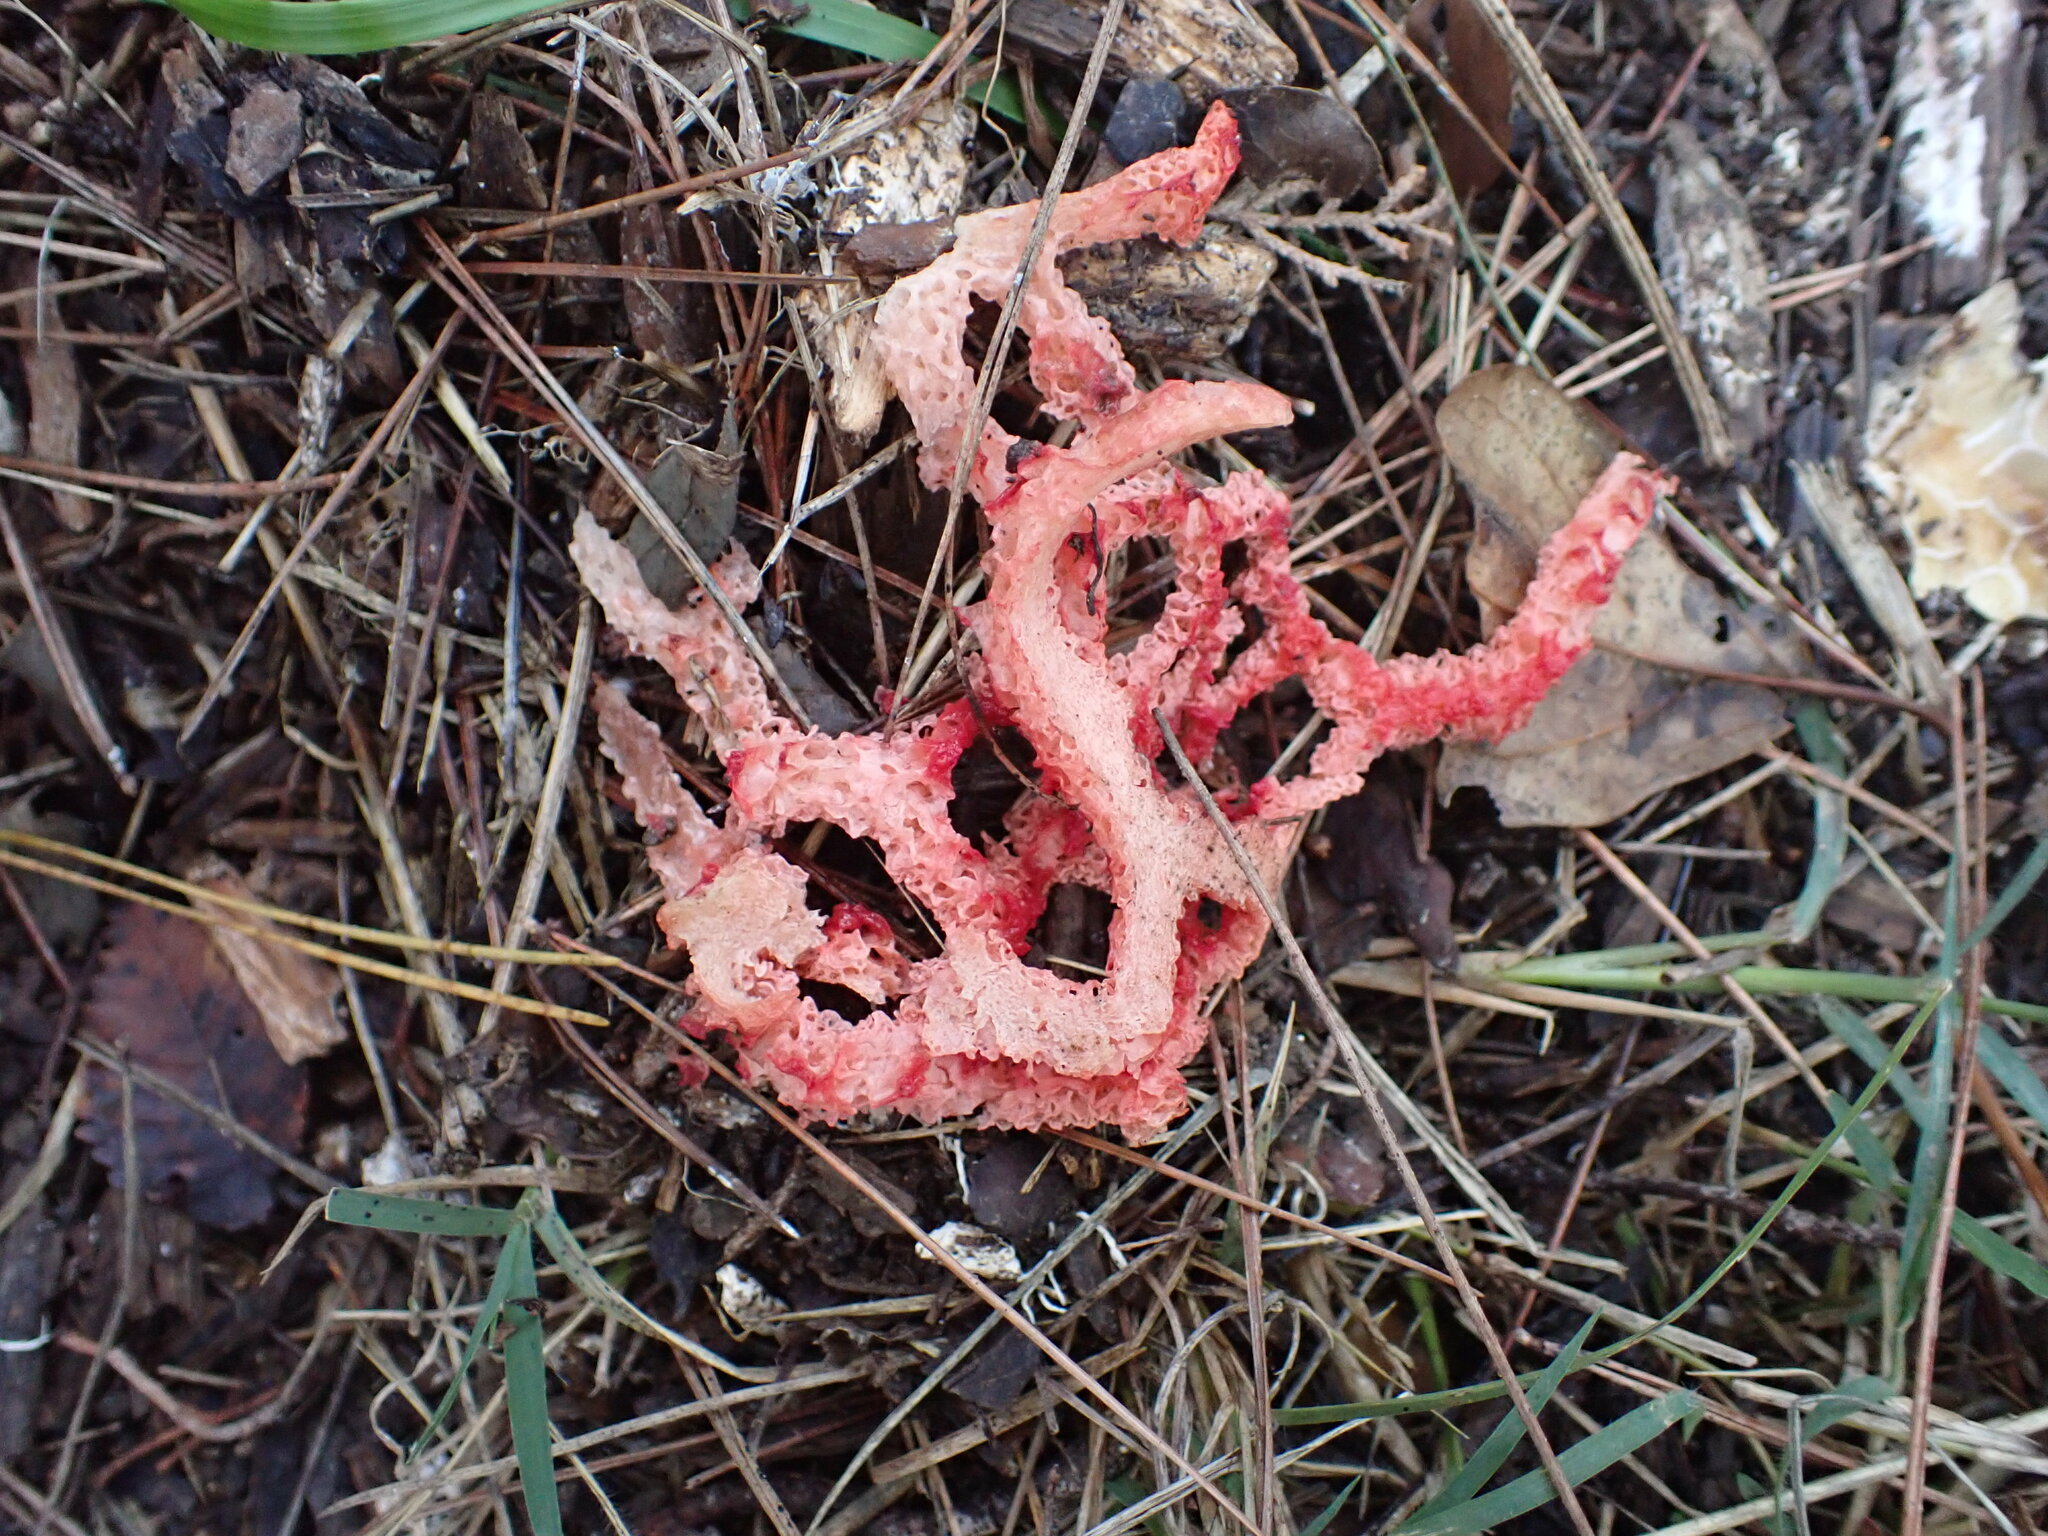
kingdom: Fungi
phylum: Basidiomycota
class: Agaricomycetes
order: Phallales
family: Phallaceae
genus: Clathrus
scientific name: Clathrus ruber
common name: Red cage
